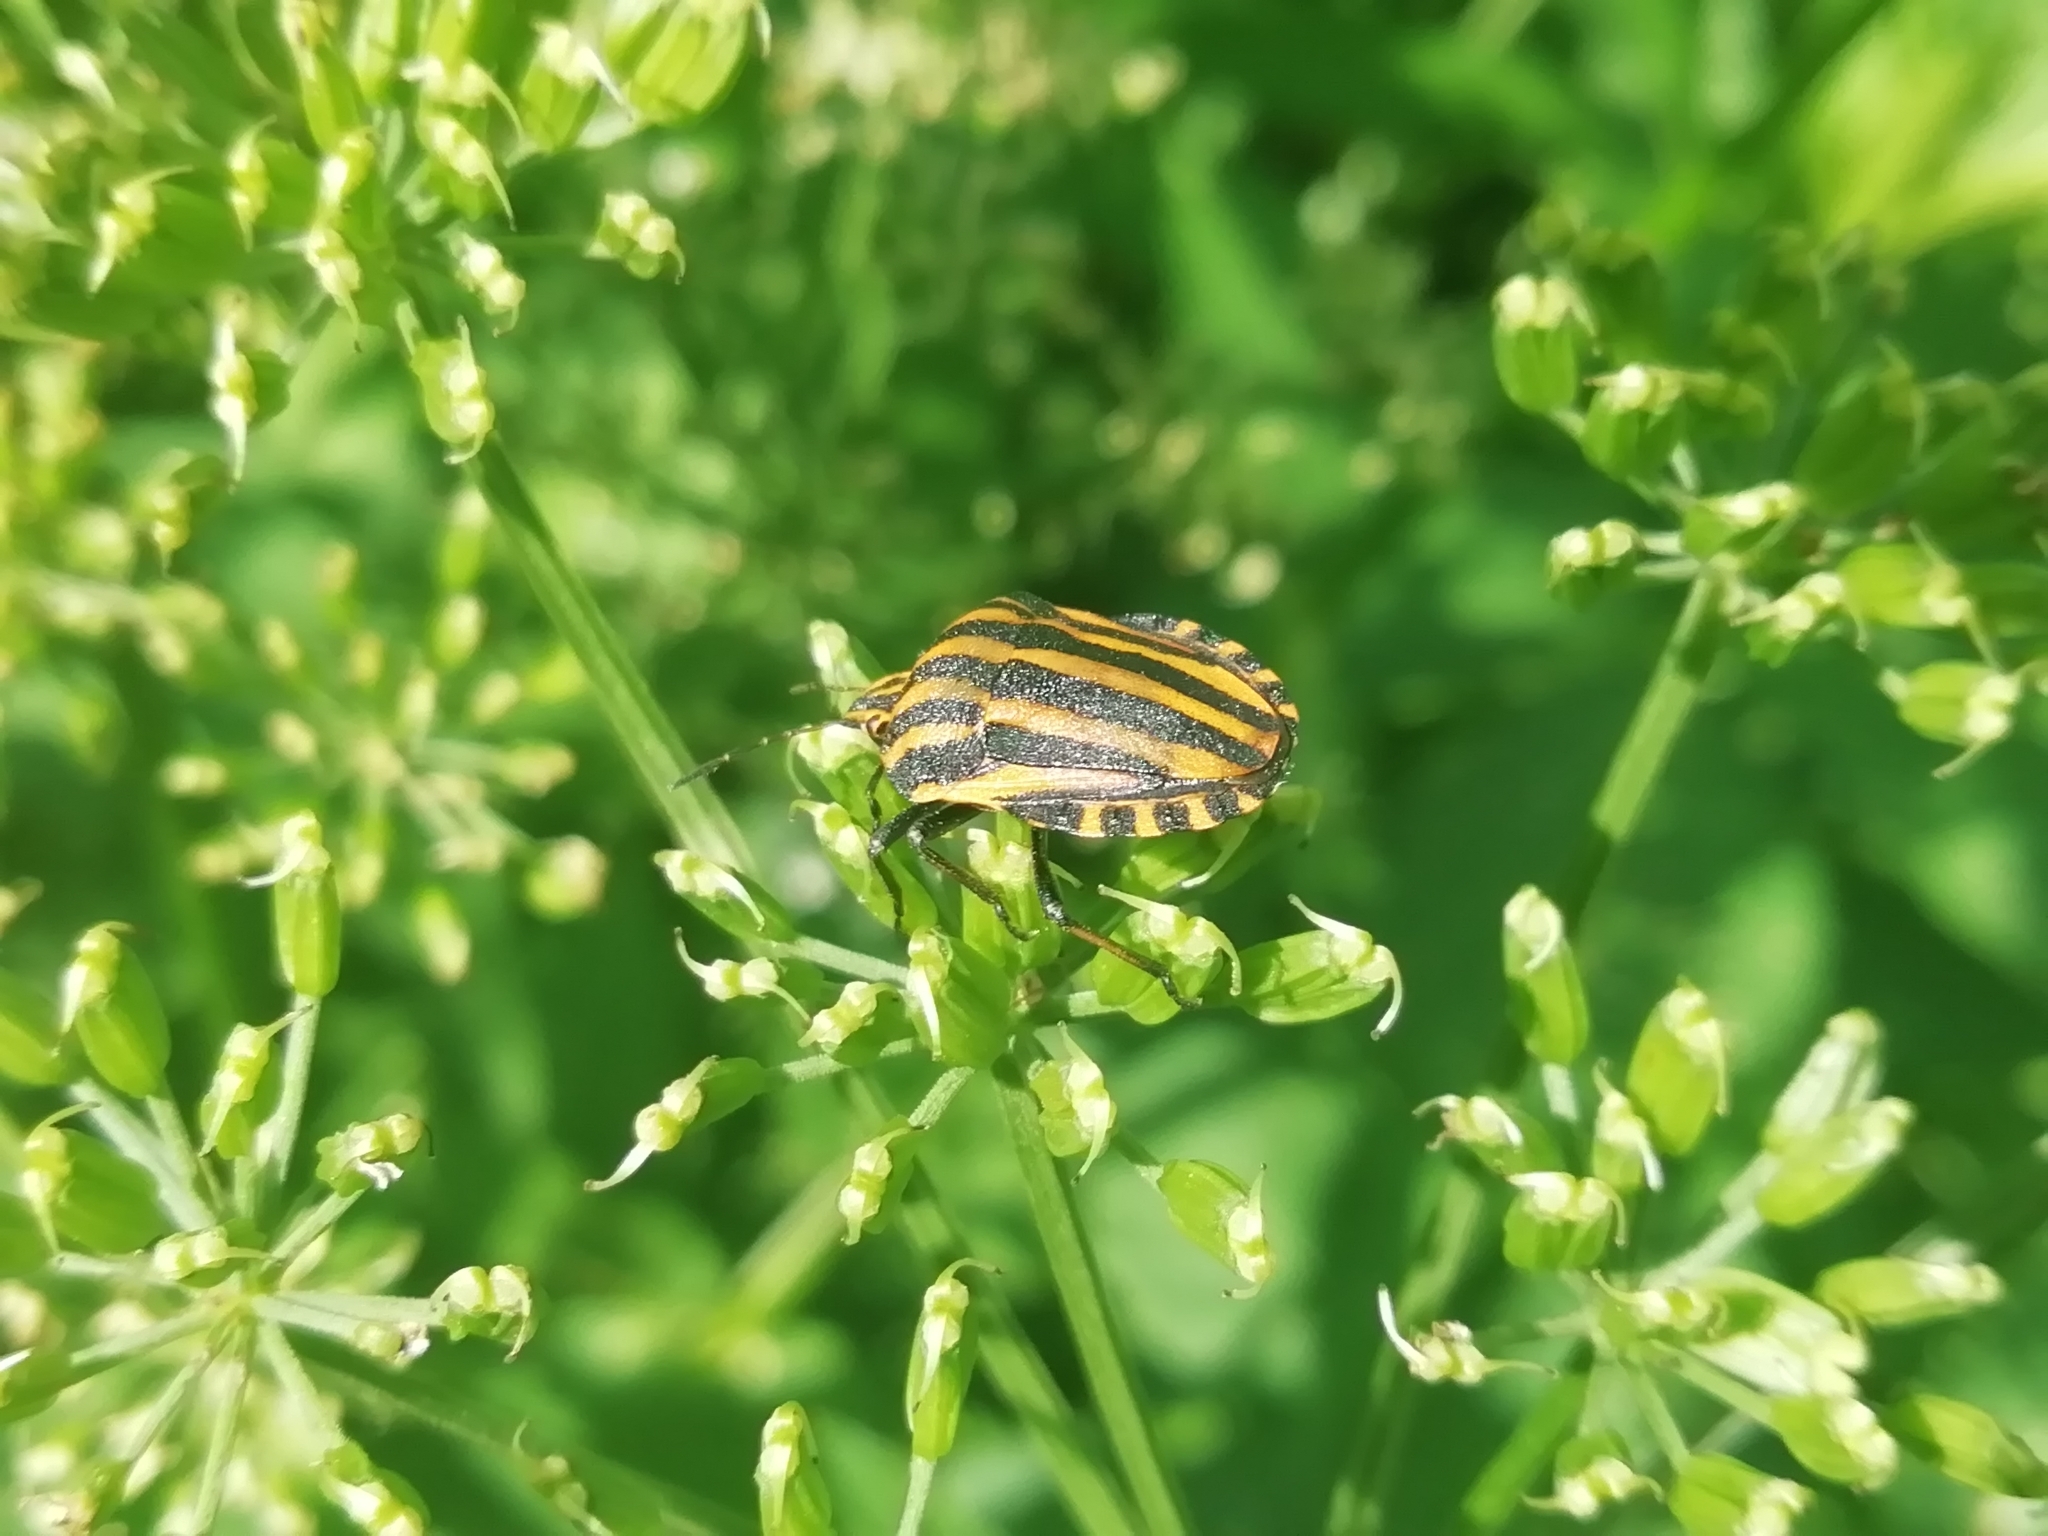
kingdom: Animalia
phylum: Arthropoda
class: Insecta
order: Hemiptera
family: Pentatomidae
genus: Graphosoma
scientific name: Graphosoma italicum
